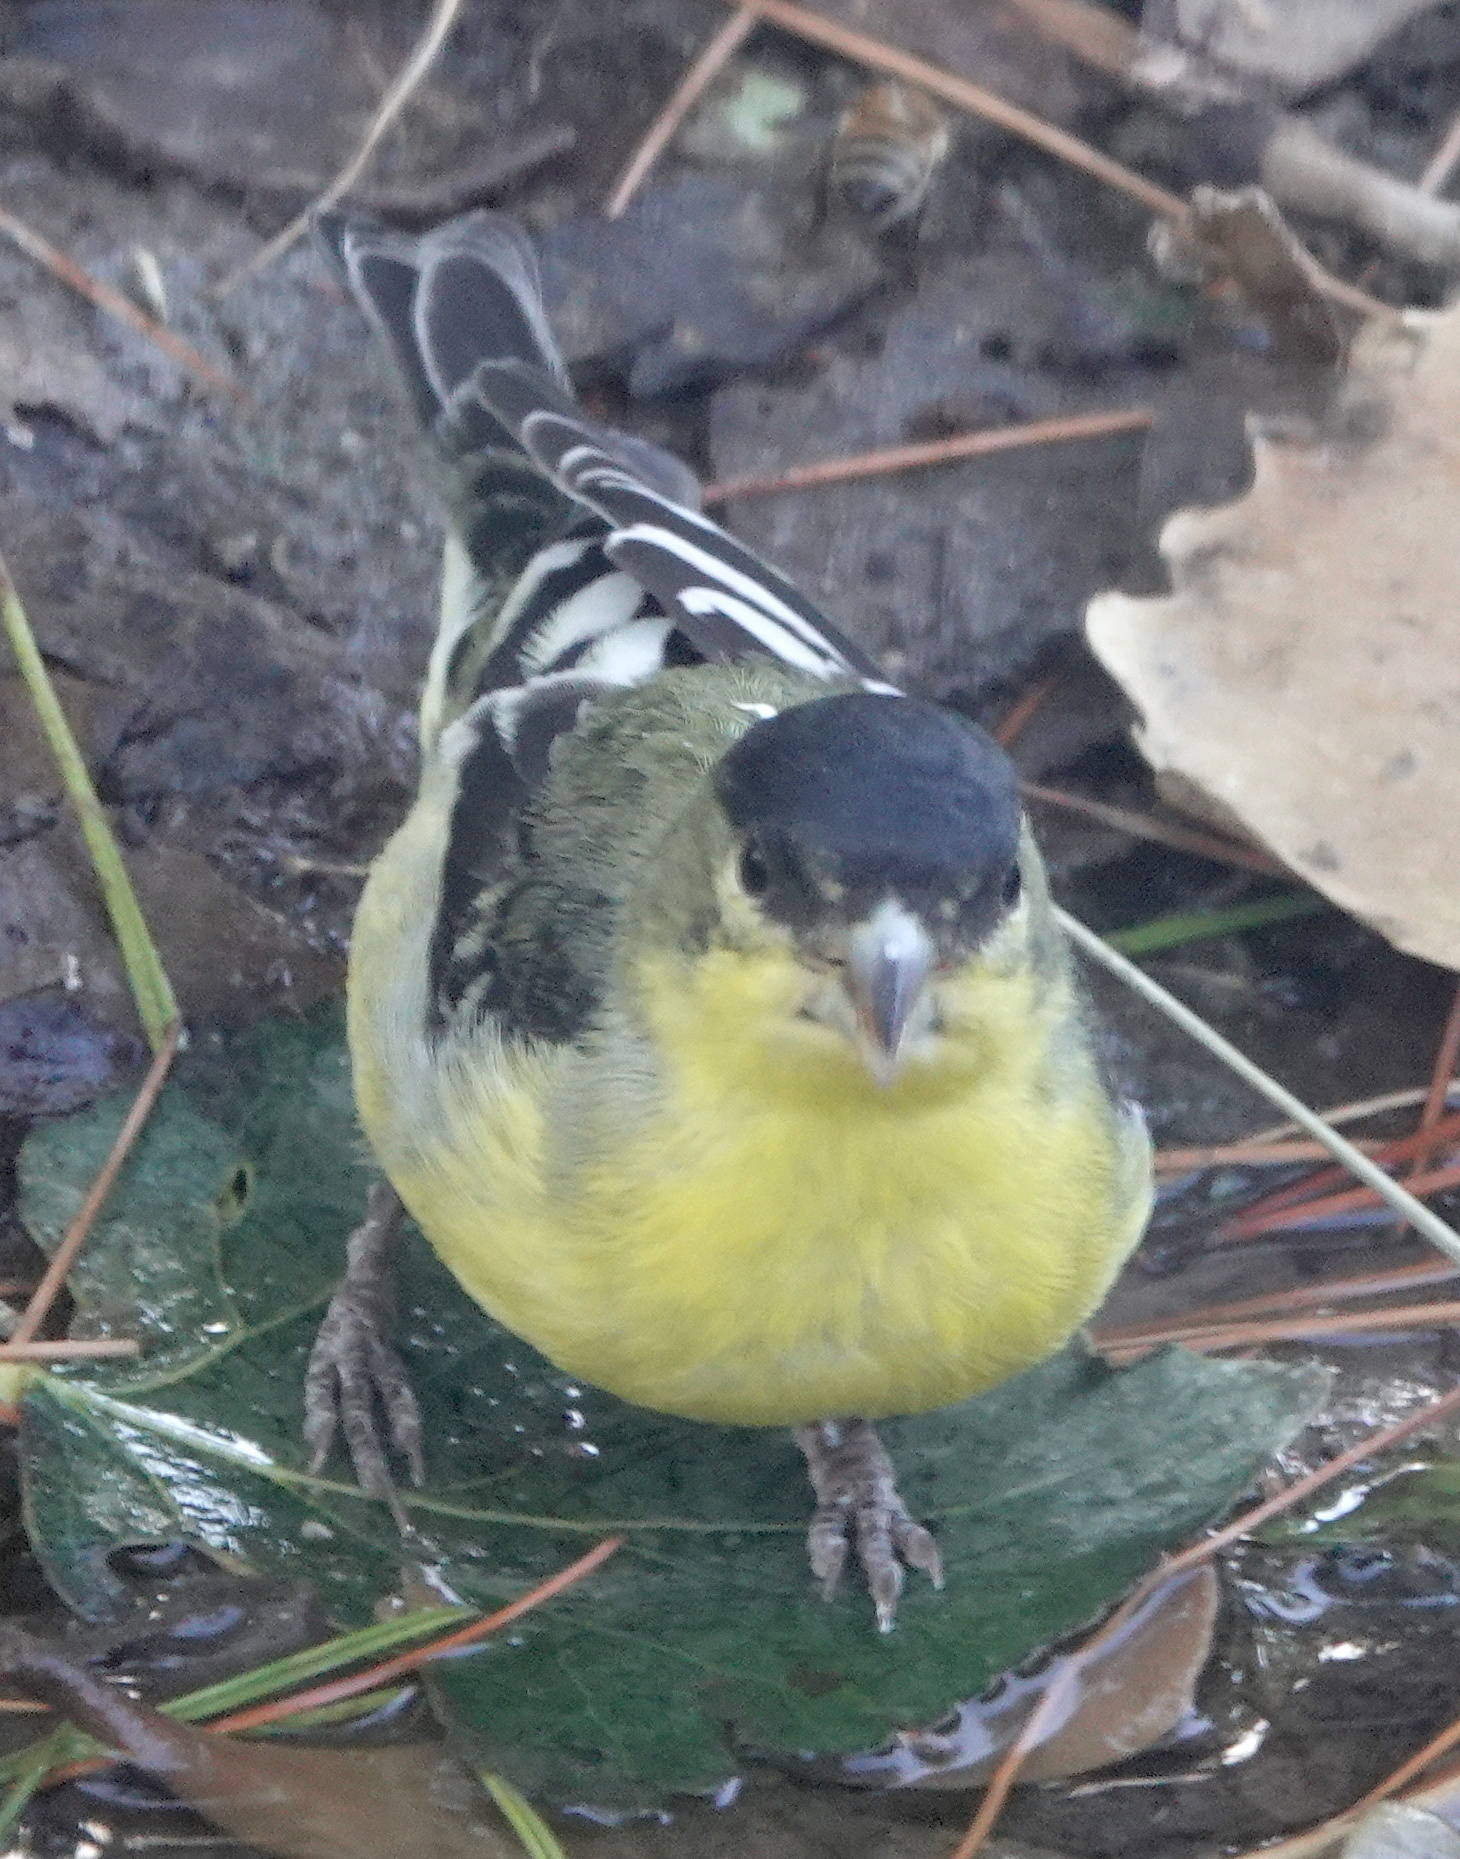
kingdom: Animalia
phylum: Chordata
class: Aves
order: Passeriformes
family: Fringillidae
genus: Spinus
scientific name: Spinus psaltria
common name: Lesser goldfinch
